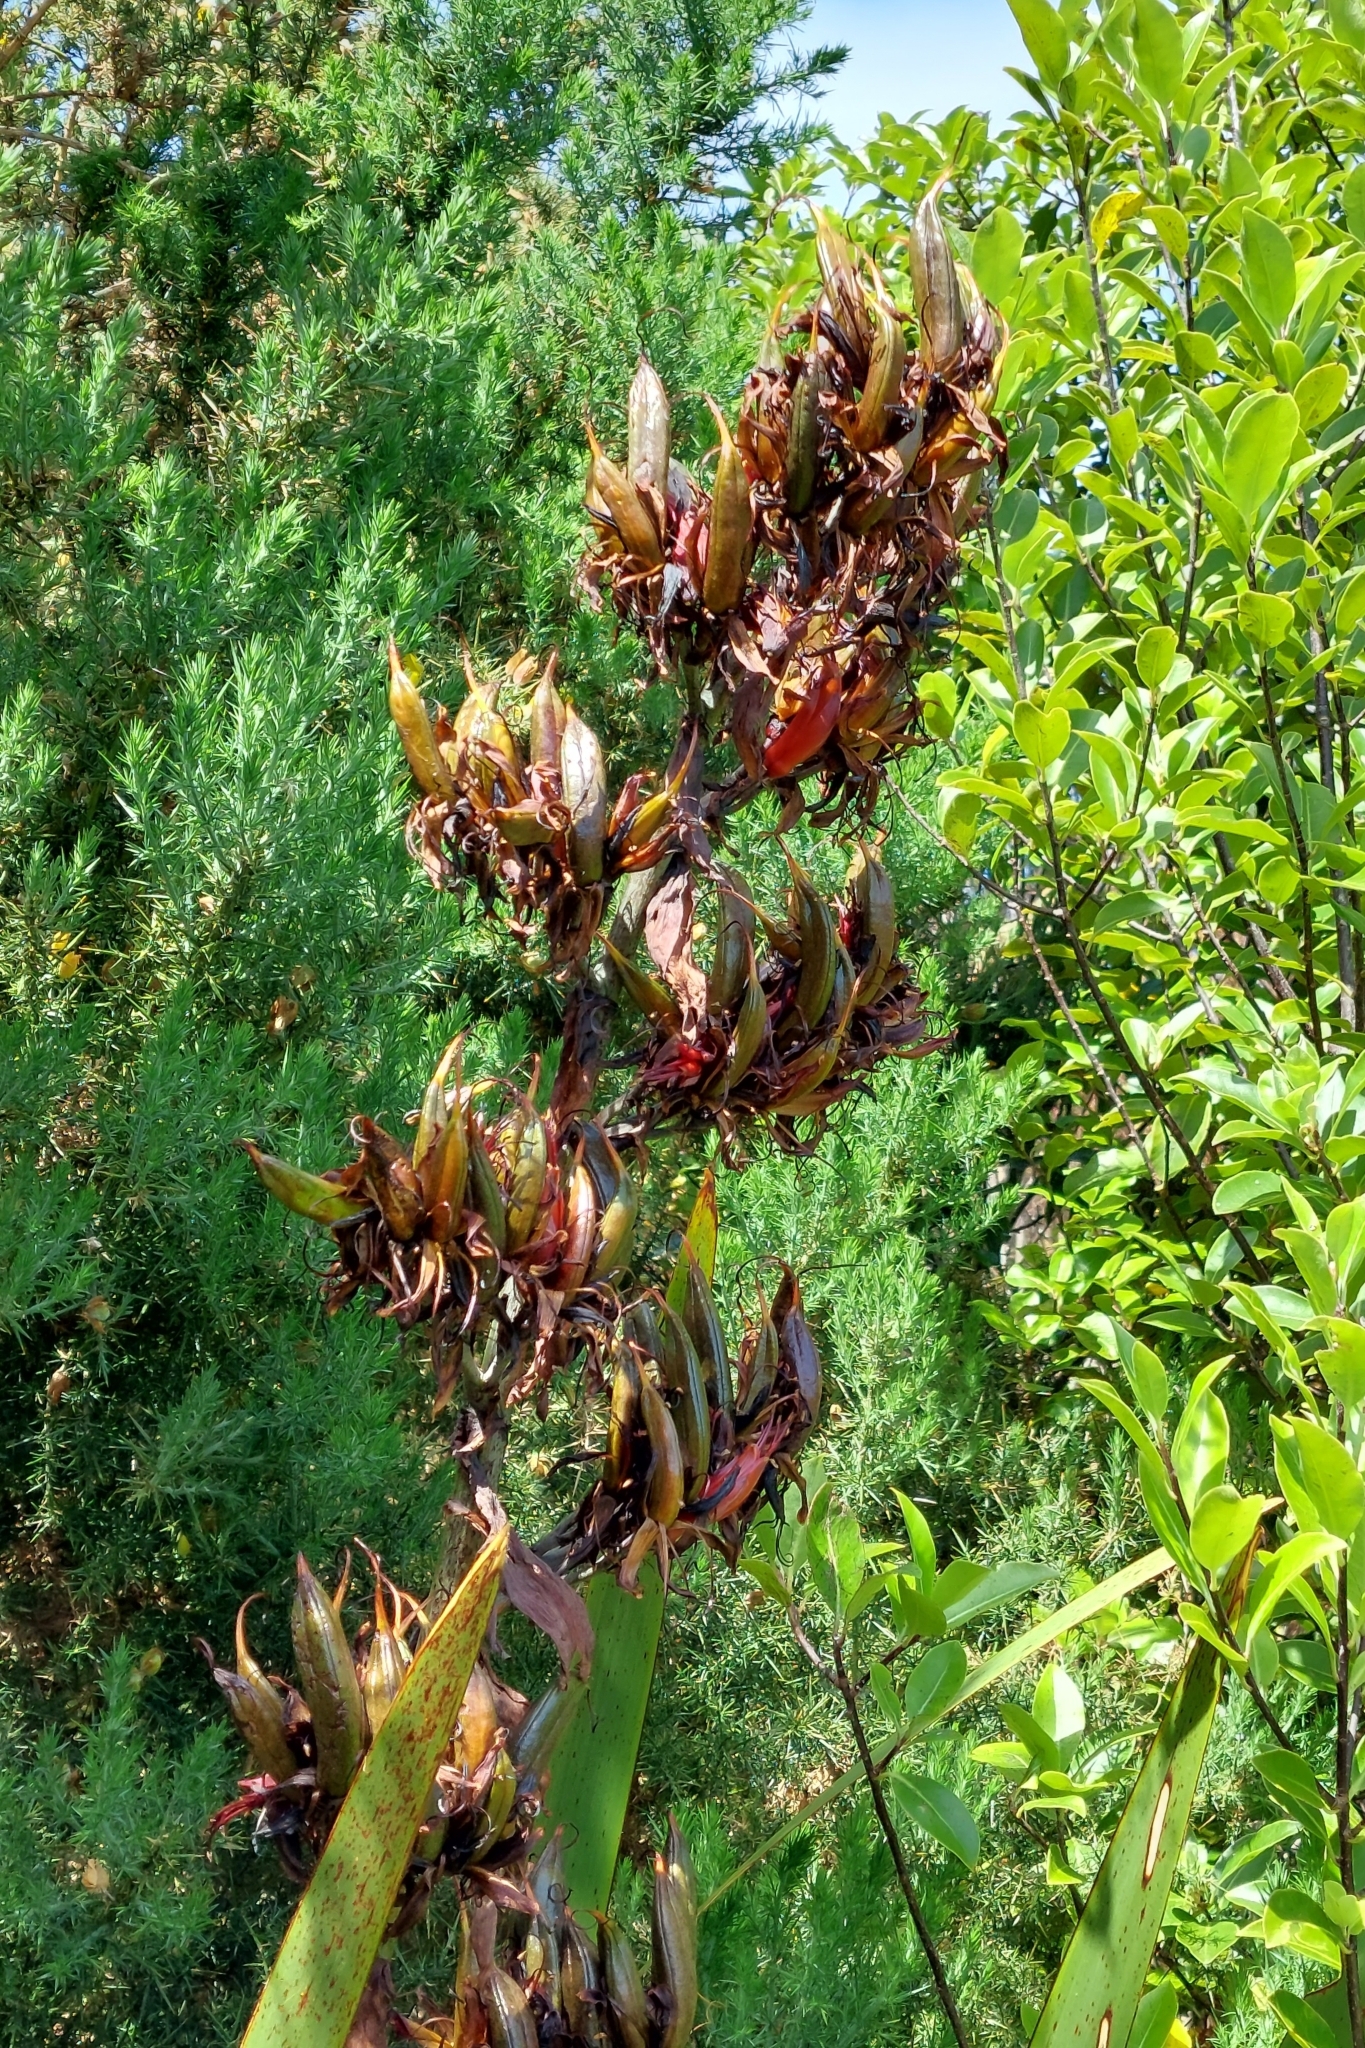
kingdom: Plantae
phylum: Tracheophyta
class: Liliopsida
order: Asparagales
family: Asphodelaceae
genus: Phormium
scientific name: Phormium tenax
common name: New zealand flax
